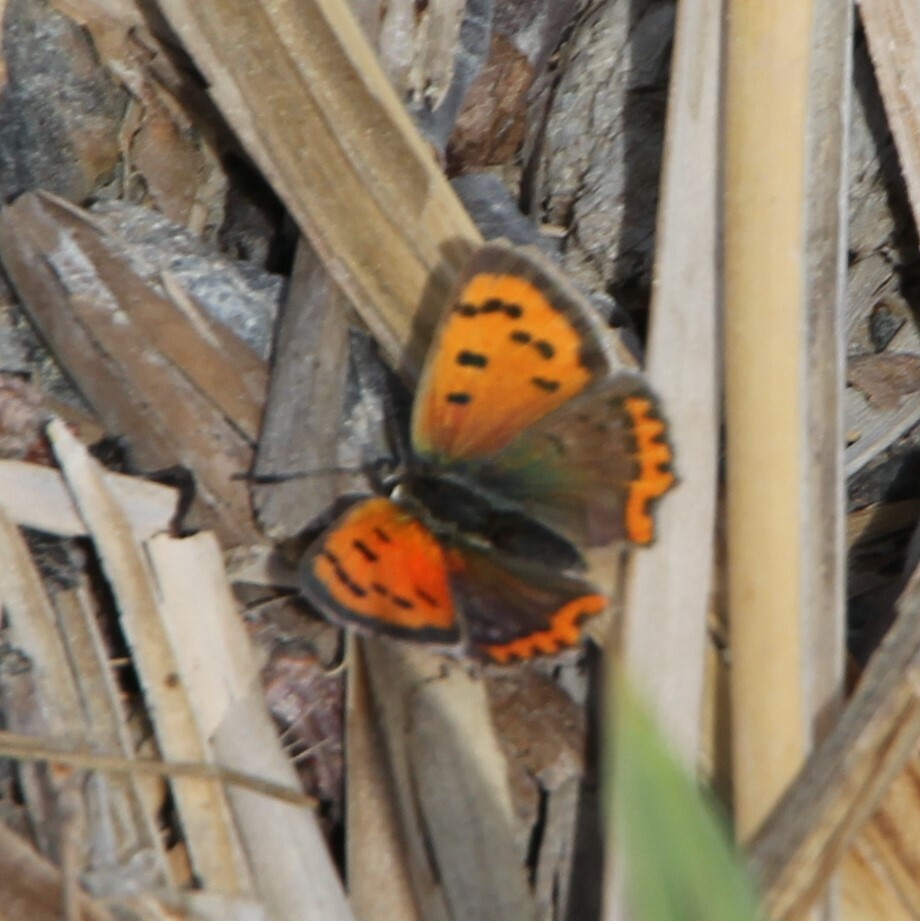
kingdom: Animalia
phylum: Arthropoda
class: Insecta
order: Lepidoptera
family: Lycaenidae
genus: Lycaena
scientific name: Lycaena phlaeas
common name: Small copper
